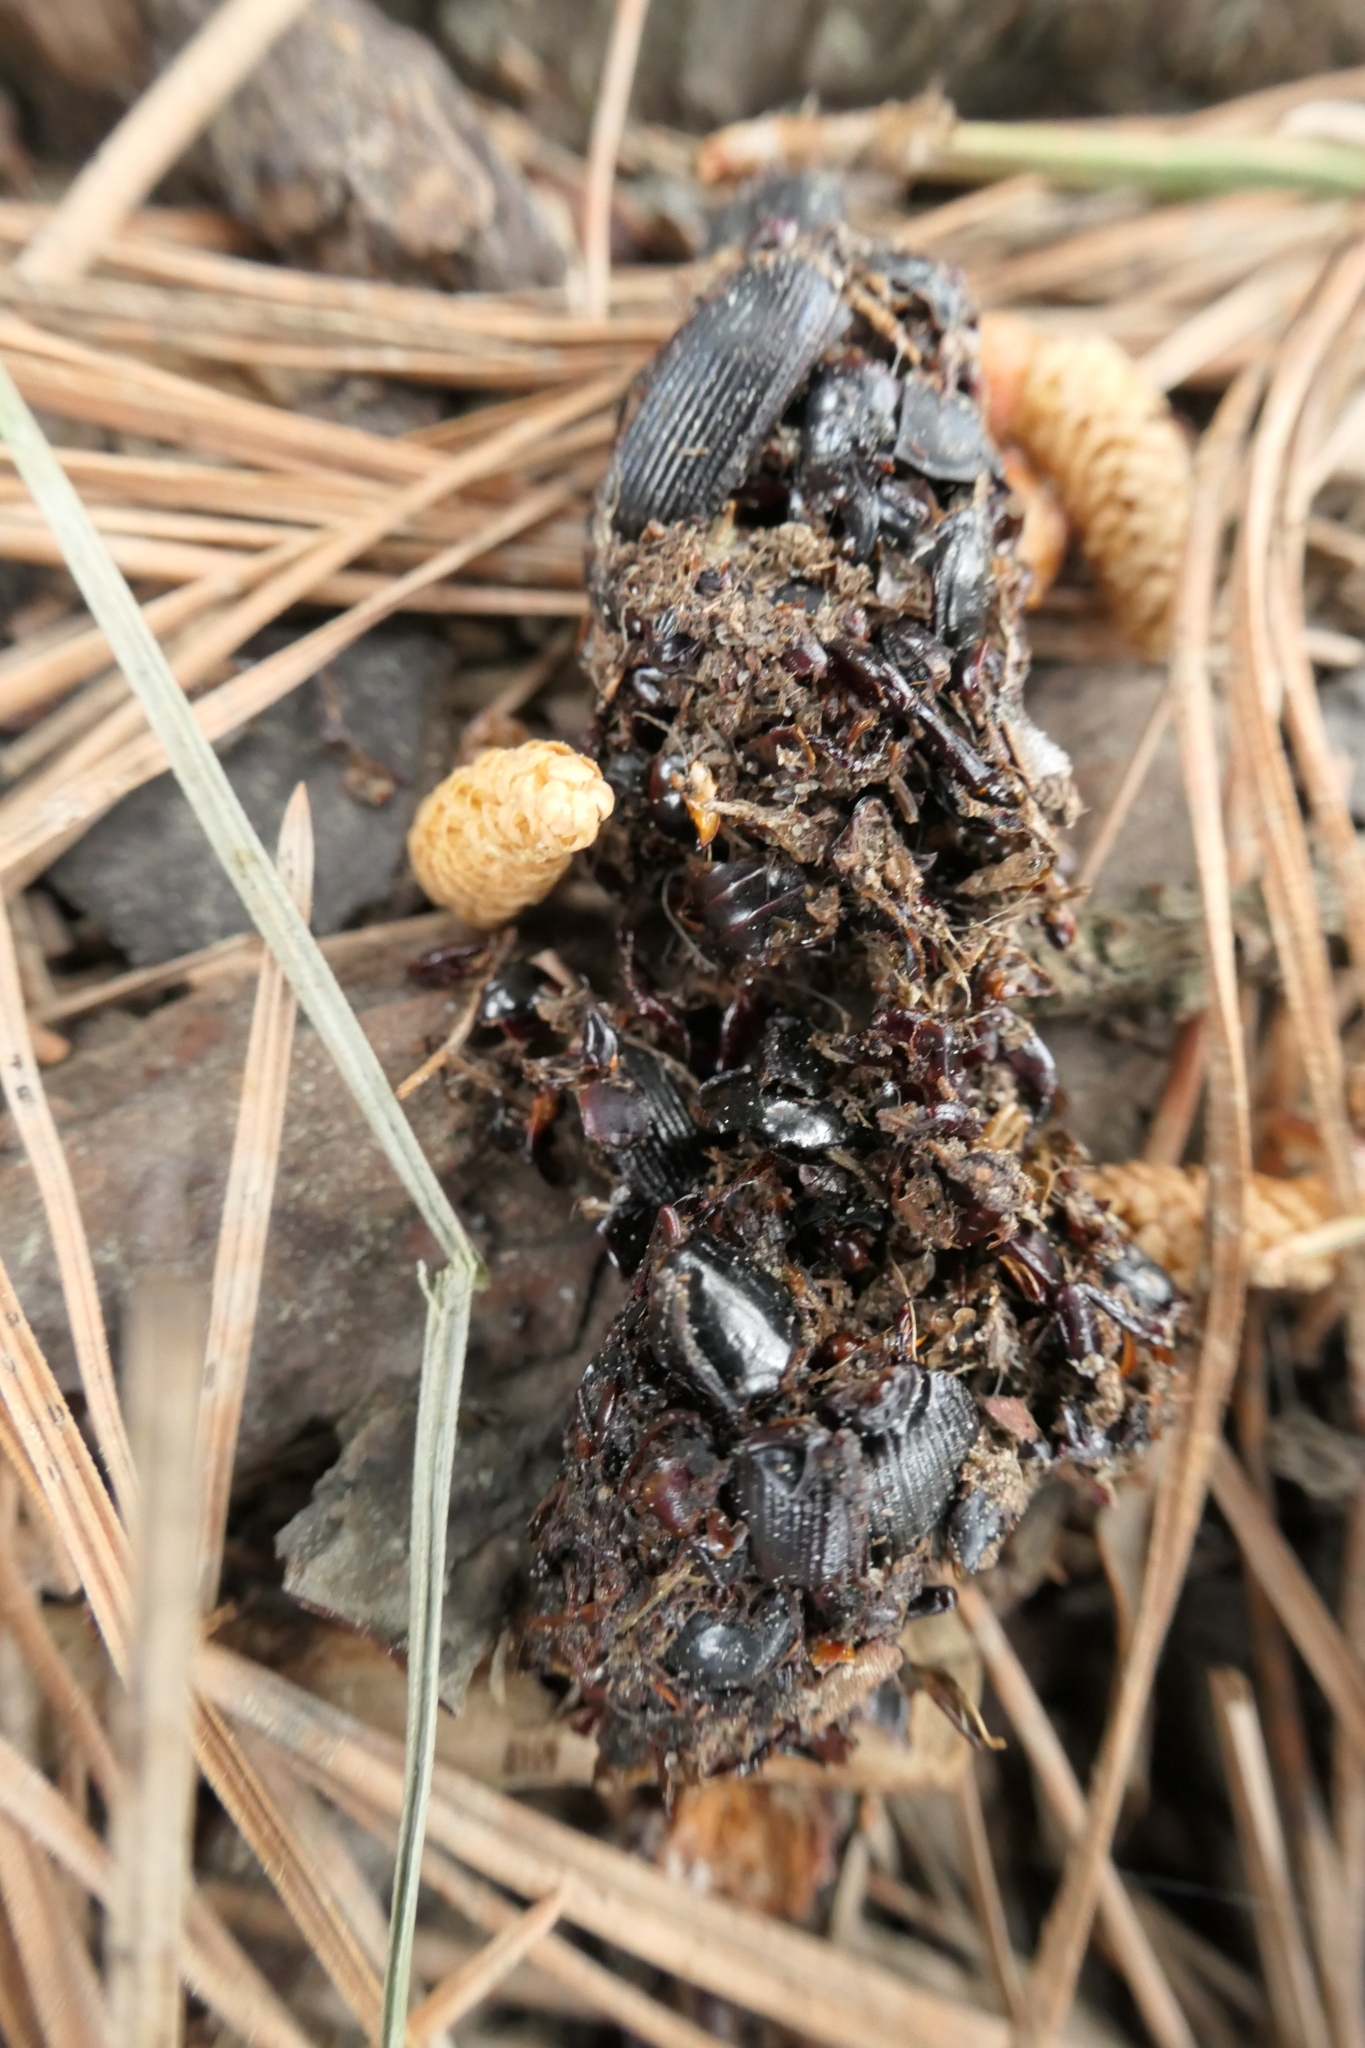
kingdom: Animalia
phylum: Chordata
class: Aves
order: Strigiformes
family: Strigidae
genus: Athene
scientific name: Athene noctua
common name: Little owl
